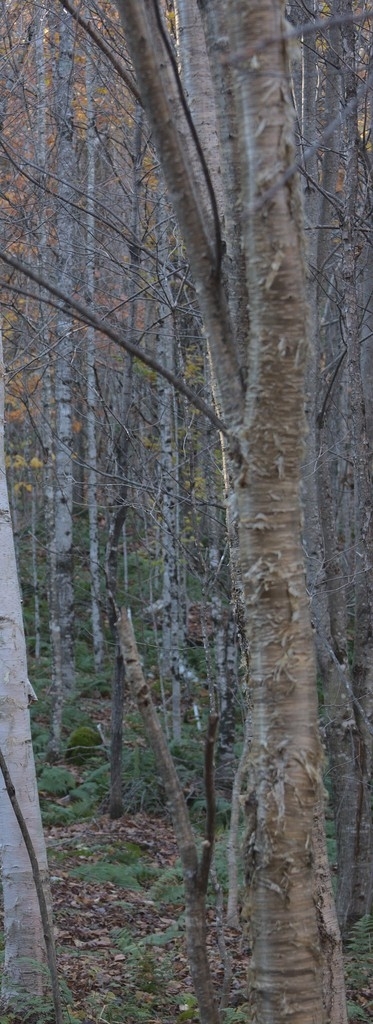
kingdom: Plantae
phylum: Tracheophyta
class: Magnoliopsida
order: Fagales
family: Betulaceae
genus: Betula
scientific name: Betula alleghaniensis
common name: Yellow birch
